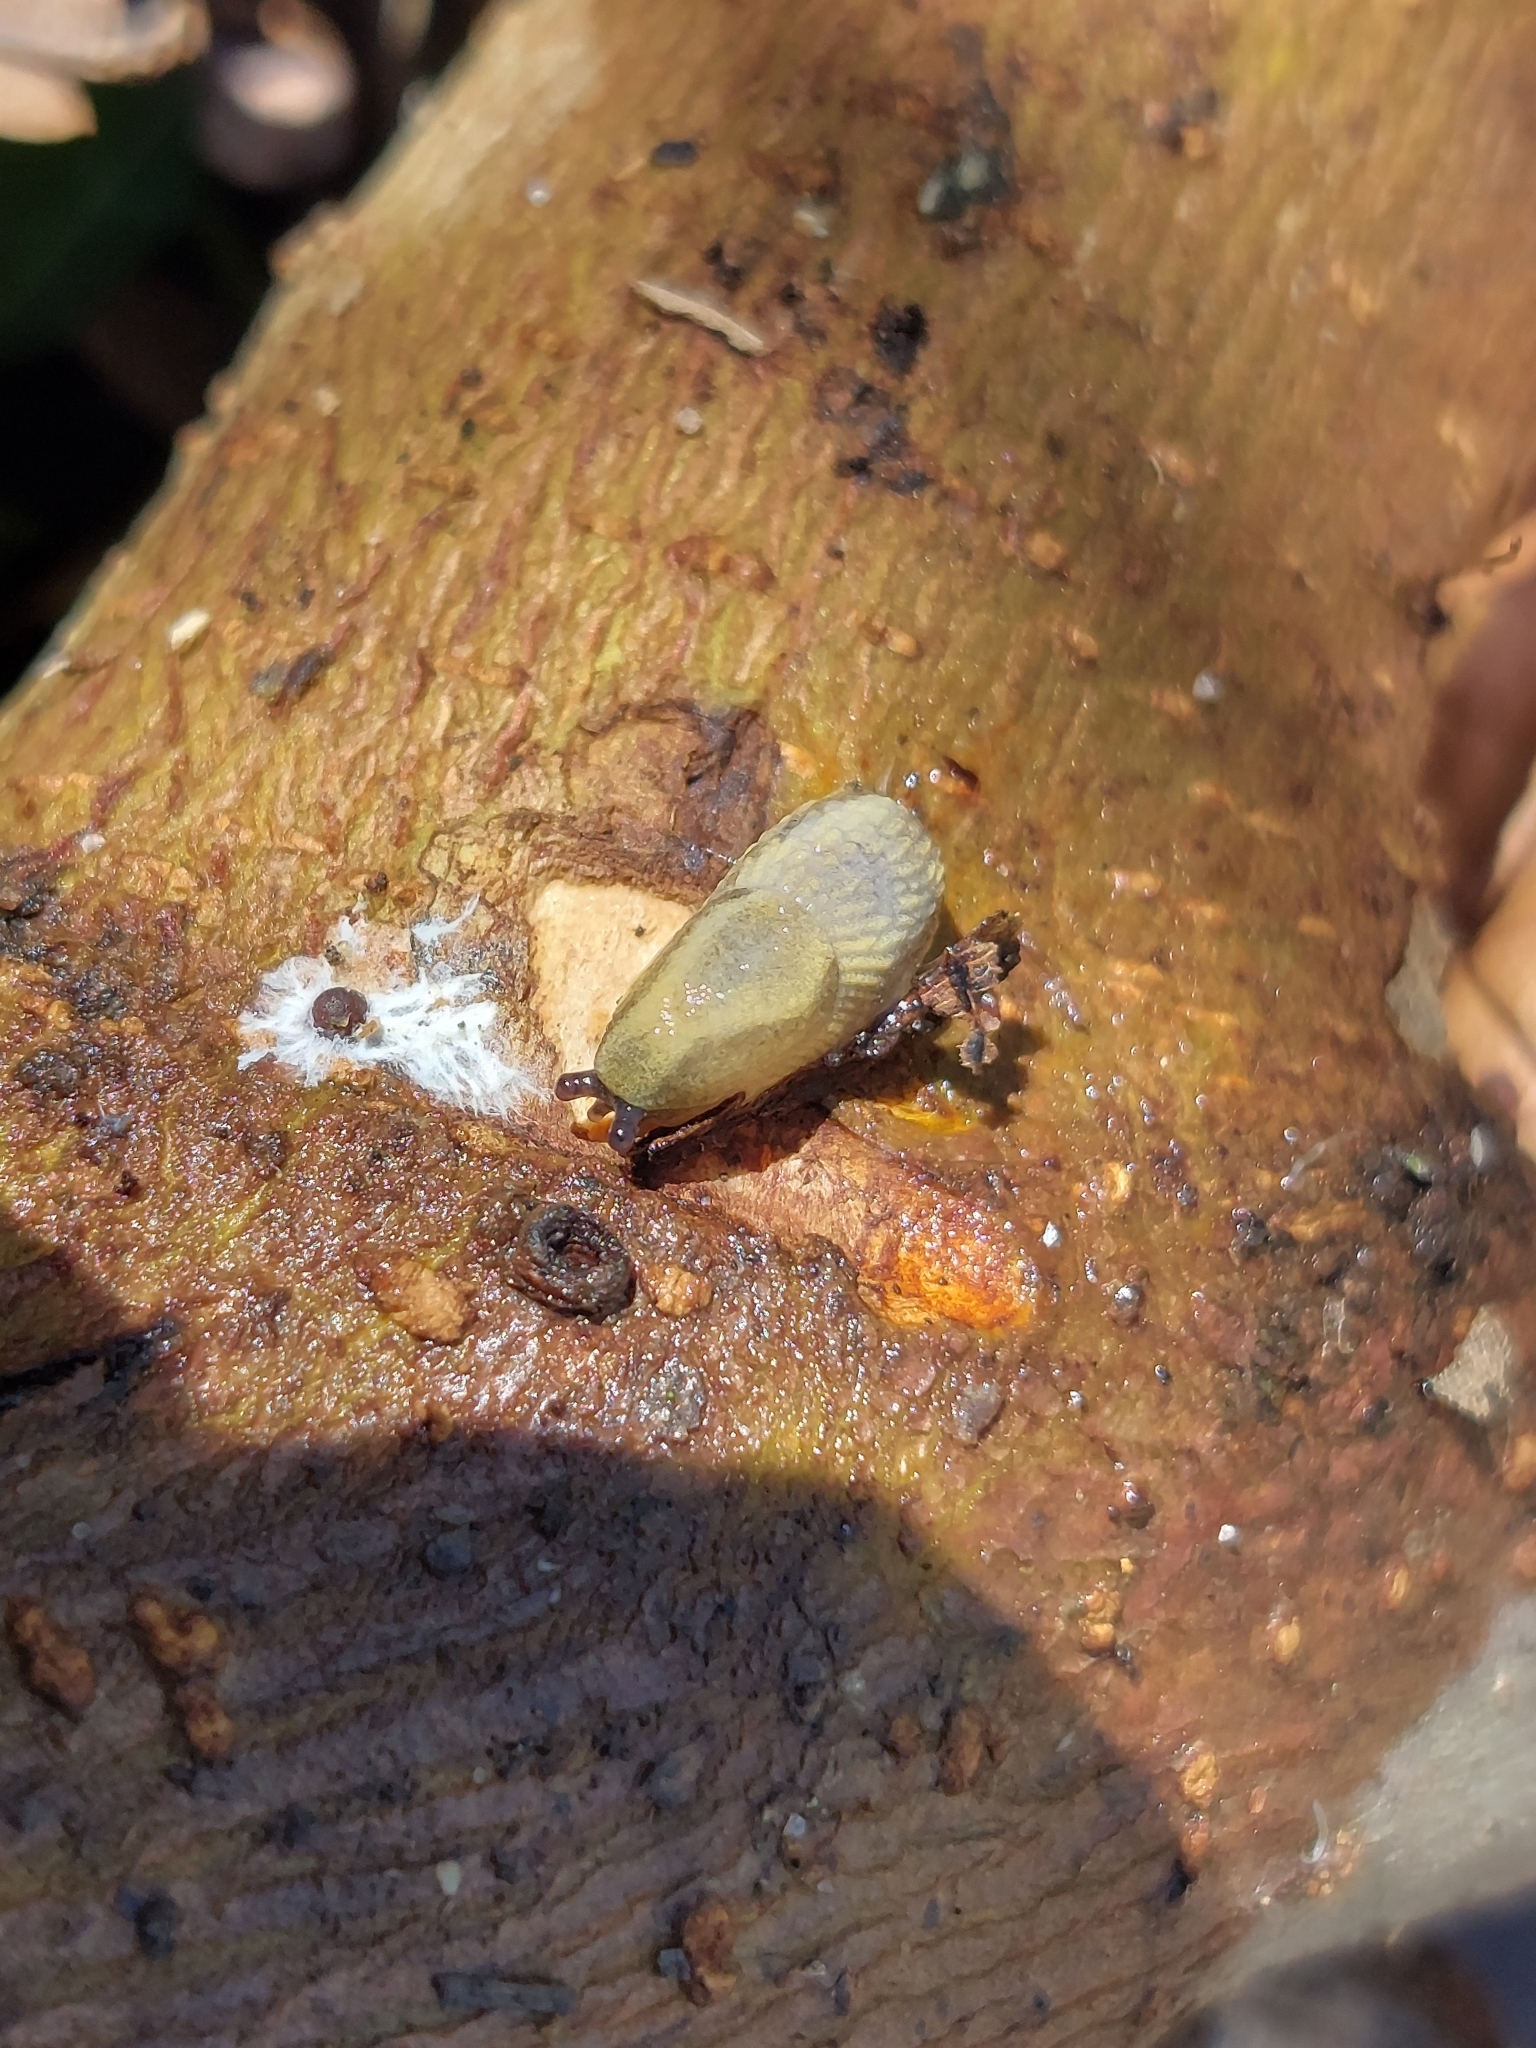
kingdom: Animalia
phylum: Mollusca
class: Gastropoda
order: Stylommatophora
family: Arionidae
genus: Arion
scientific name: Arion vulgaris
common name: Lusitanian slug
